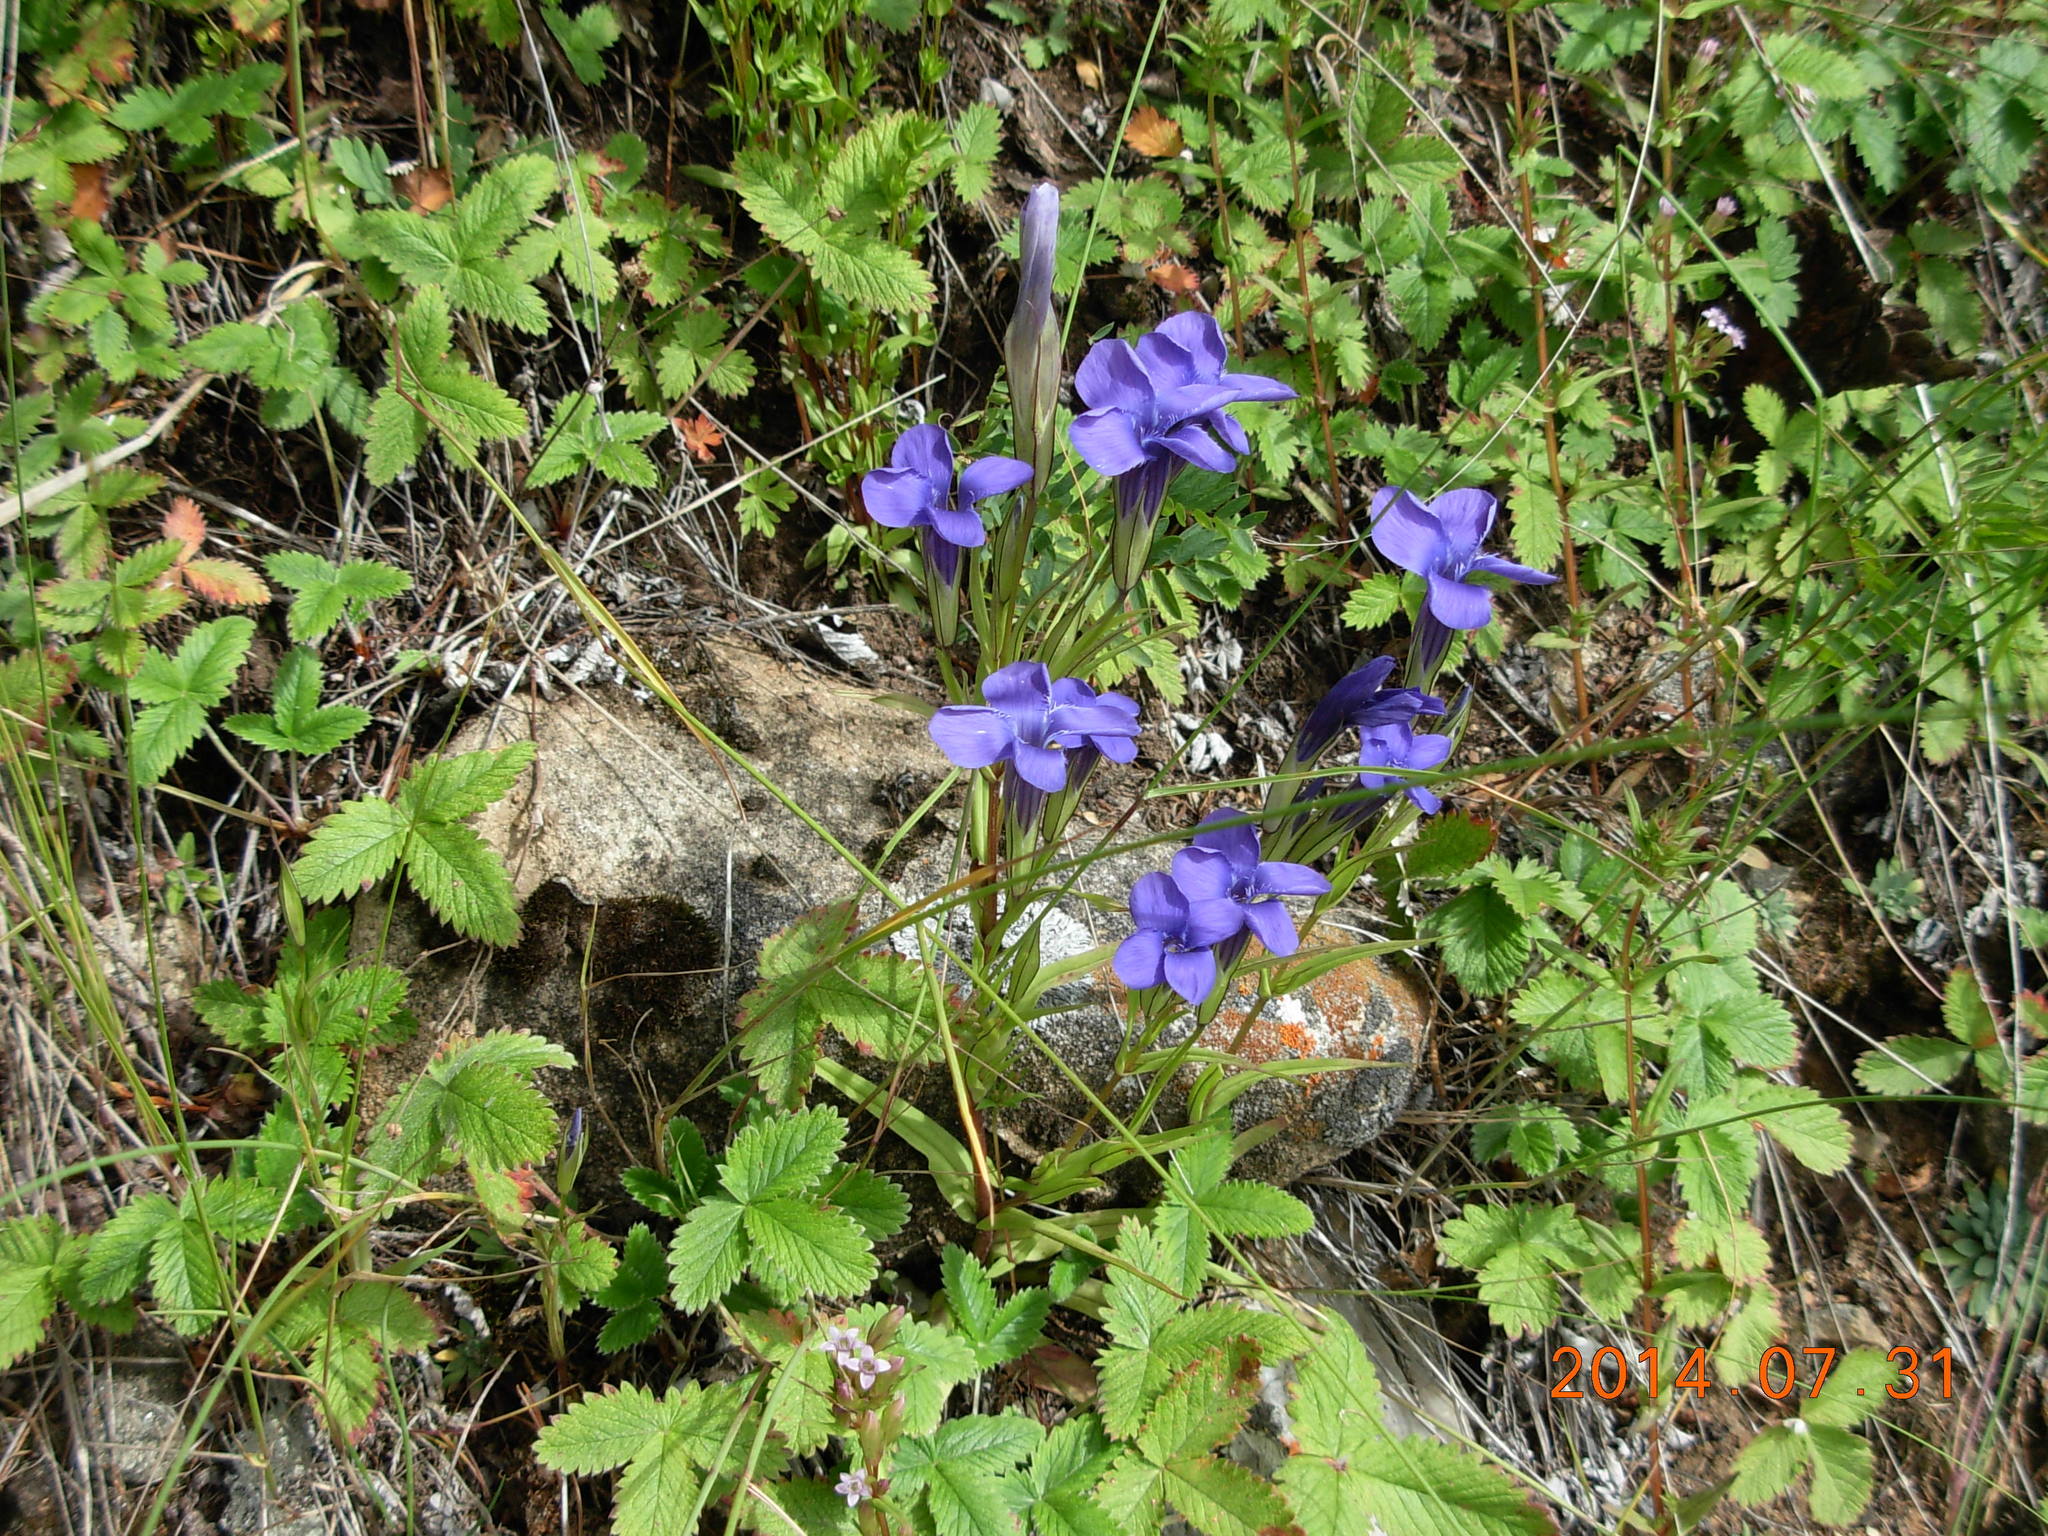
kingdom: Plantae
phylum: Tracheophyta
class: Magnoliopsida
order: Gentianales
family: Gentianaceae
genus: Gentianopsis
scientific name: Gentianopsis barbata
